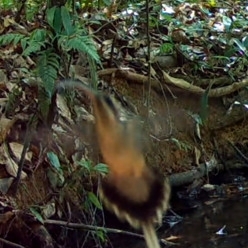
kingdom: Animalia
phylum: Chordata
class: Aves
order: Apodiformes
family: Trochilidae
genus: Phaethornis
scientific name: Phaethornis superciliosus
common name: Long-tailed hermit
